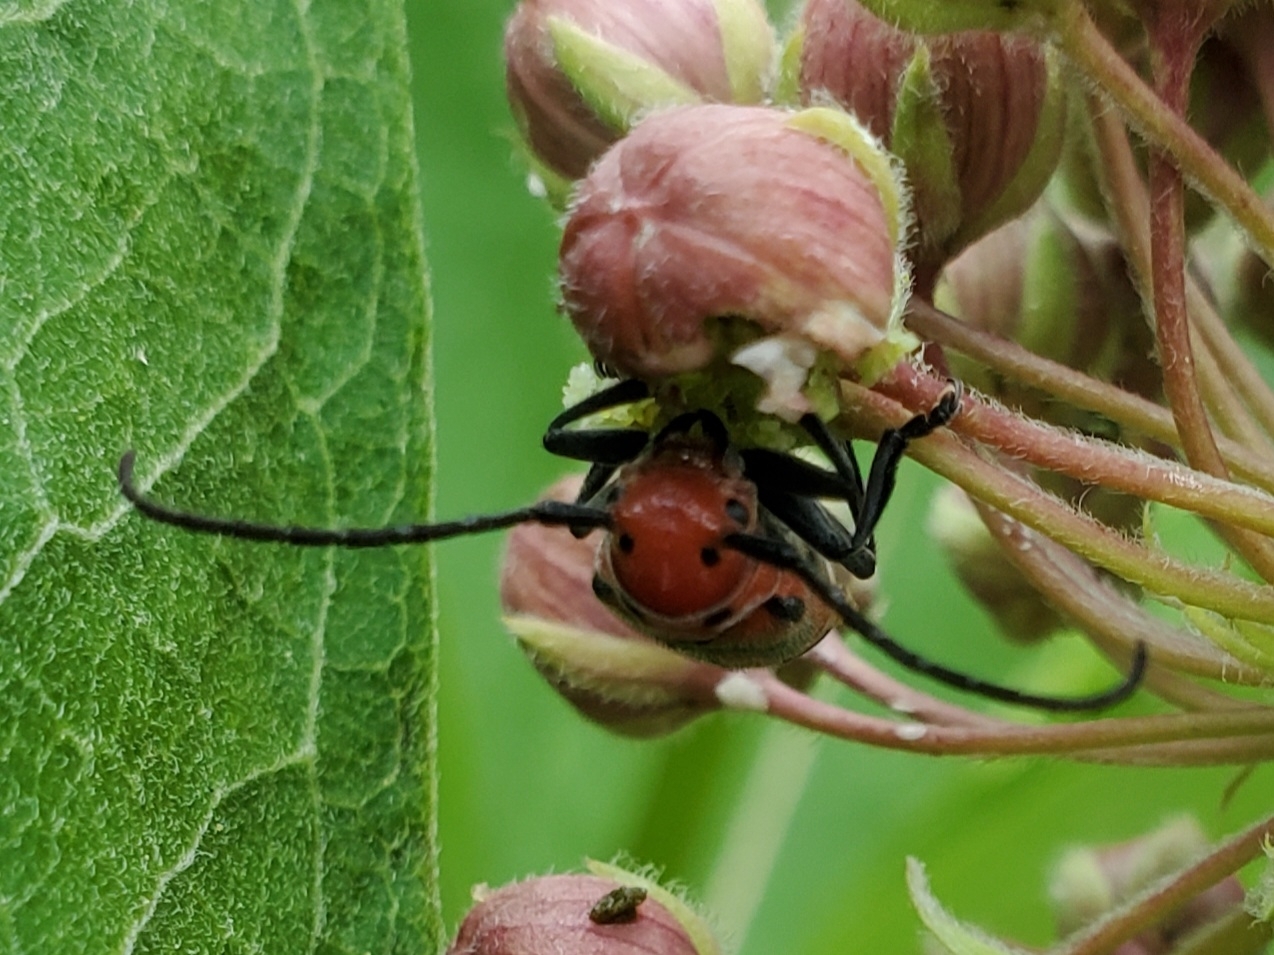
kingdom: Animalia
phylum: Arthropoda
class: Insecta
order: Coleoptera
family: Cerambycidae
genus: Tetraopes
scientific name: Tetraopes tetrophthalmus
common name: Red milkweed beetle
